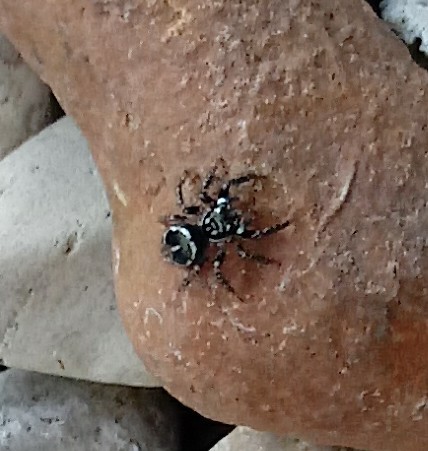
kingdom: Animalia
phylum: Arthropoda
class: Arachnida
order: Araneae
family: Salticidae
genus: Anasaitis
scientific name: Anasaitis canosa
